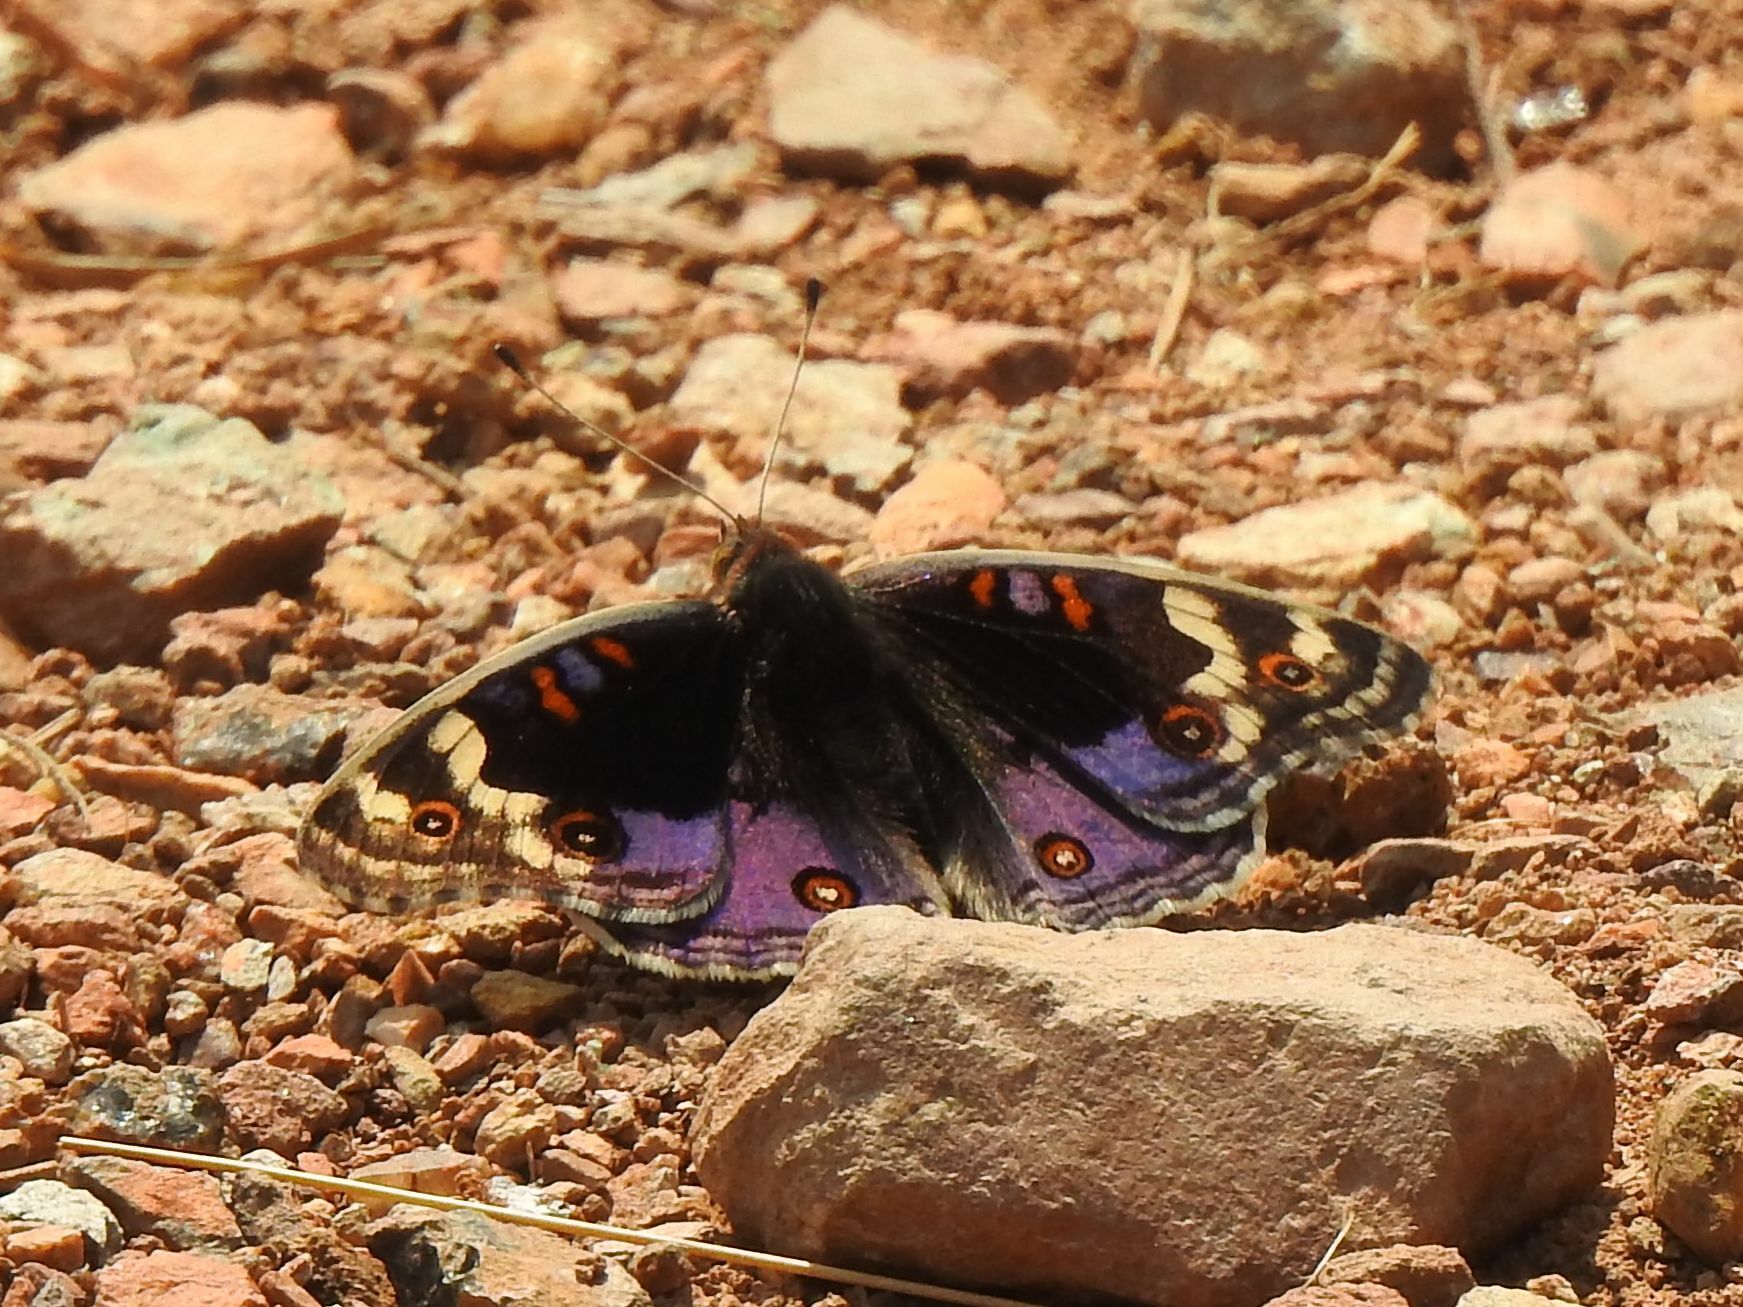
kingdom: Animalia
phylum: Arthropoda
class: Insecta
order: Lepidoptera
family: Nymphalidae
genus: Junonia
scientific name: Junonia orithya
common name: Blue pansy
